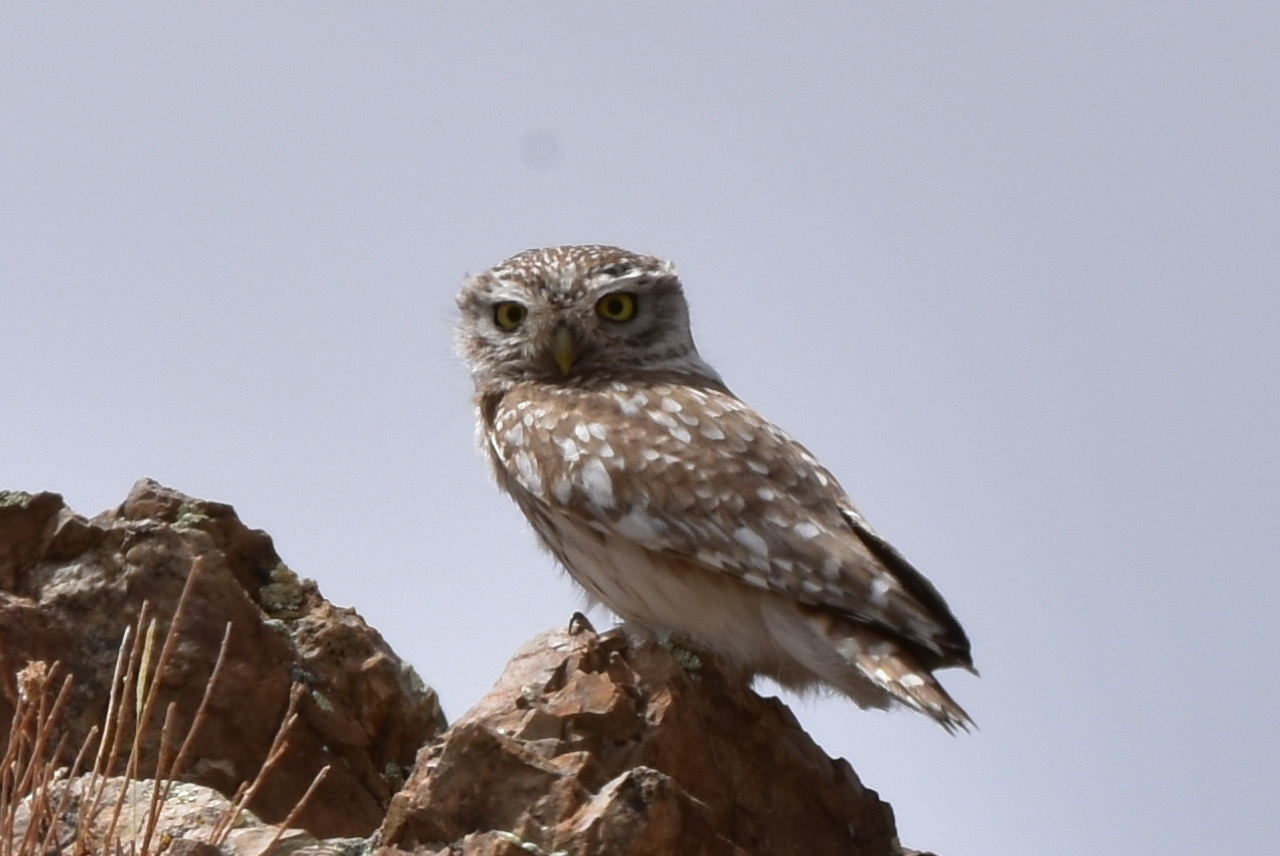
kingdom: Animalia
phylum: Chordata
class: Aves
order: Strigiformes
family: Strigidae
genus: Athene
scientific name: Athene noctua
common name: Little owl
